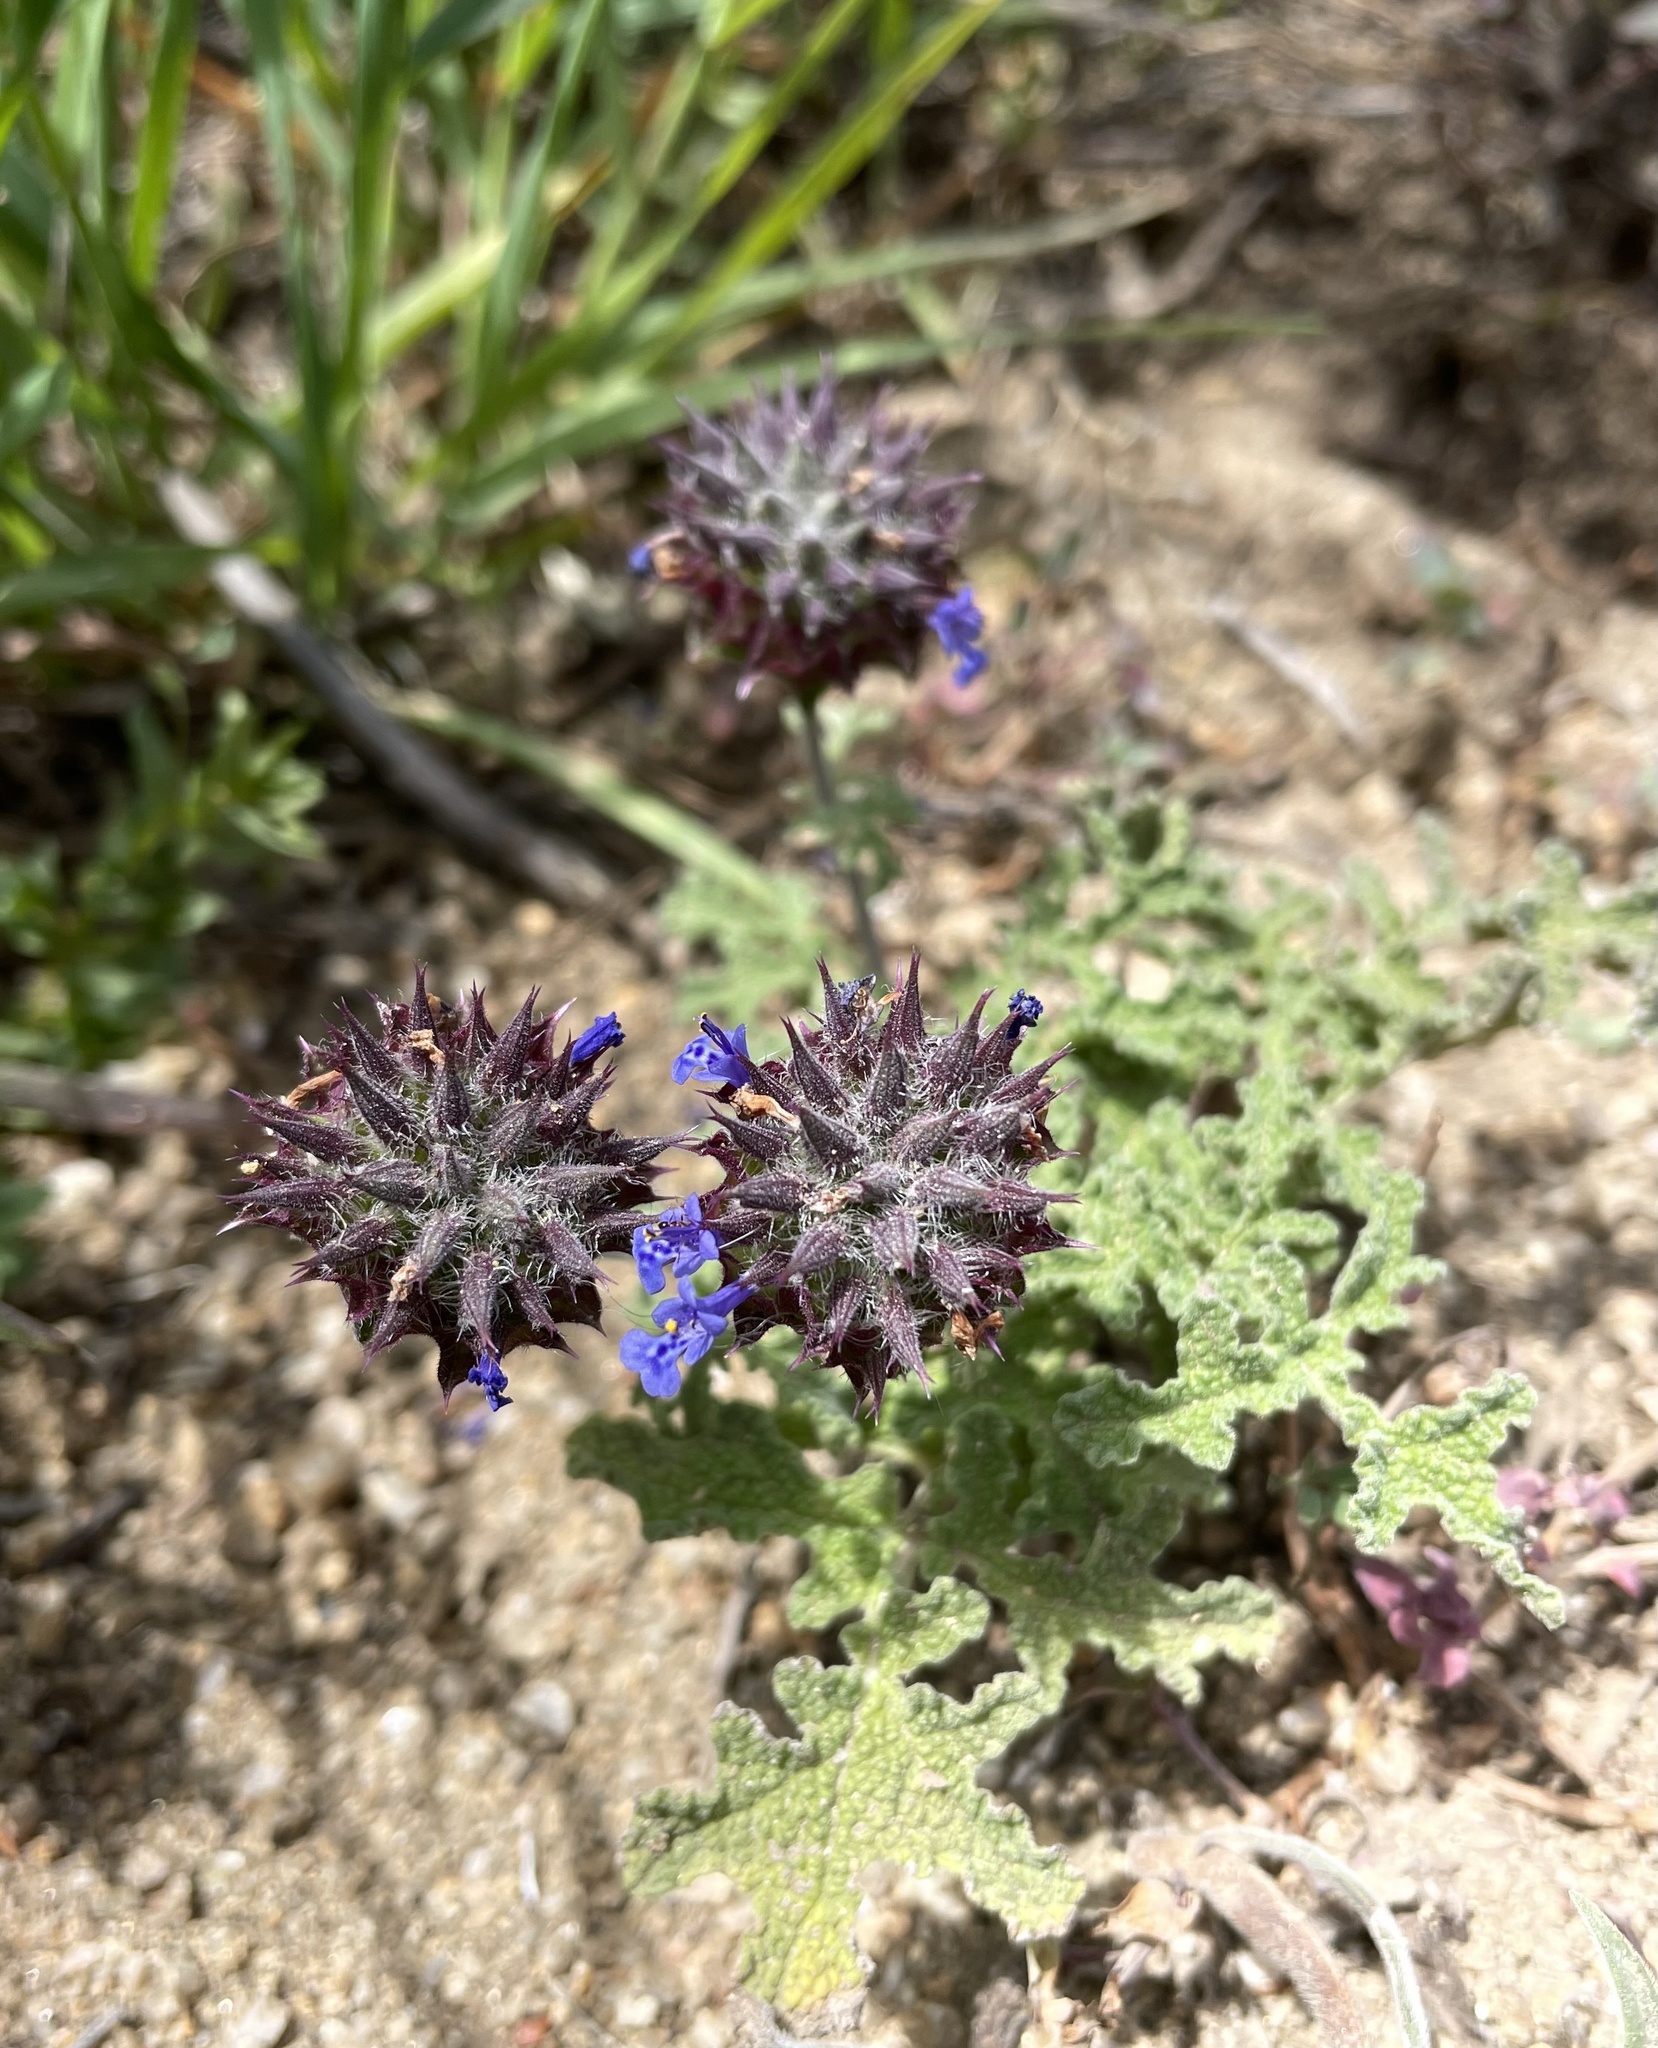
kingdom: Plantae
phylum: Tracheophyta
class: Magnoliopsida
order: Lamiales
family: Lamiaceae
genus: Salvia
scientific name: Salvia columbariae
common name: Chia
